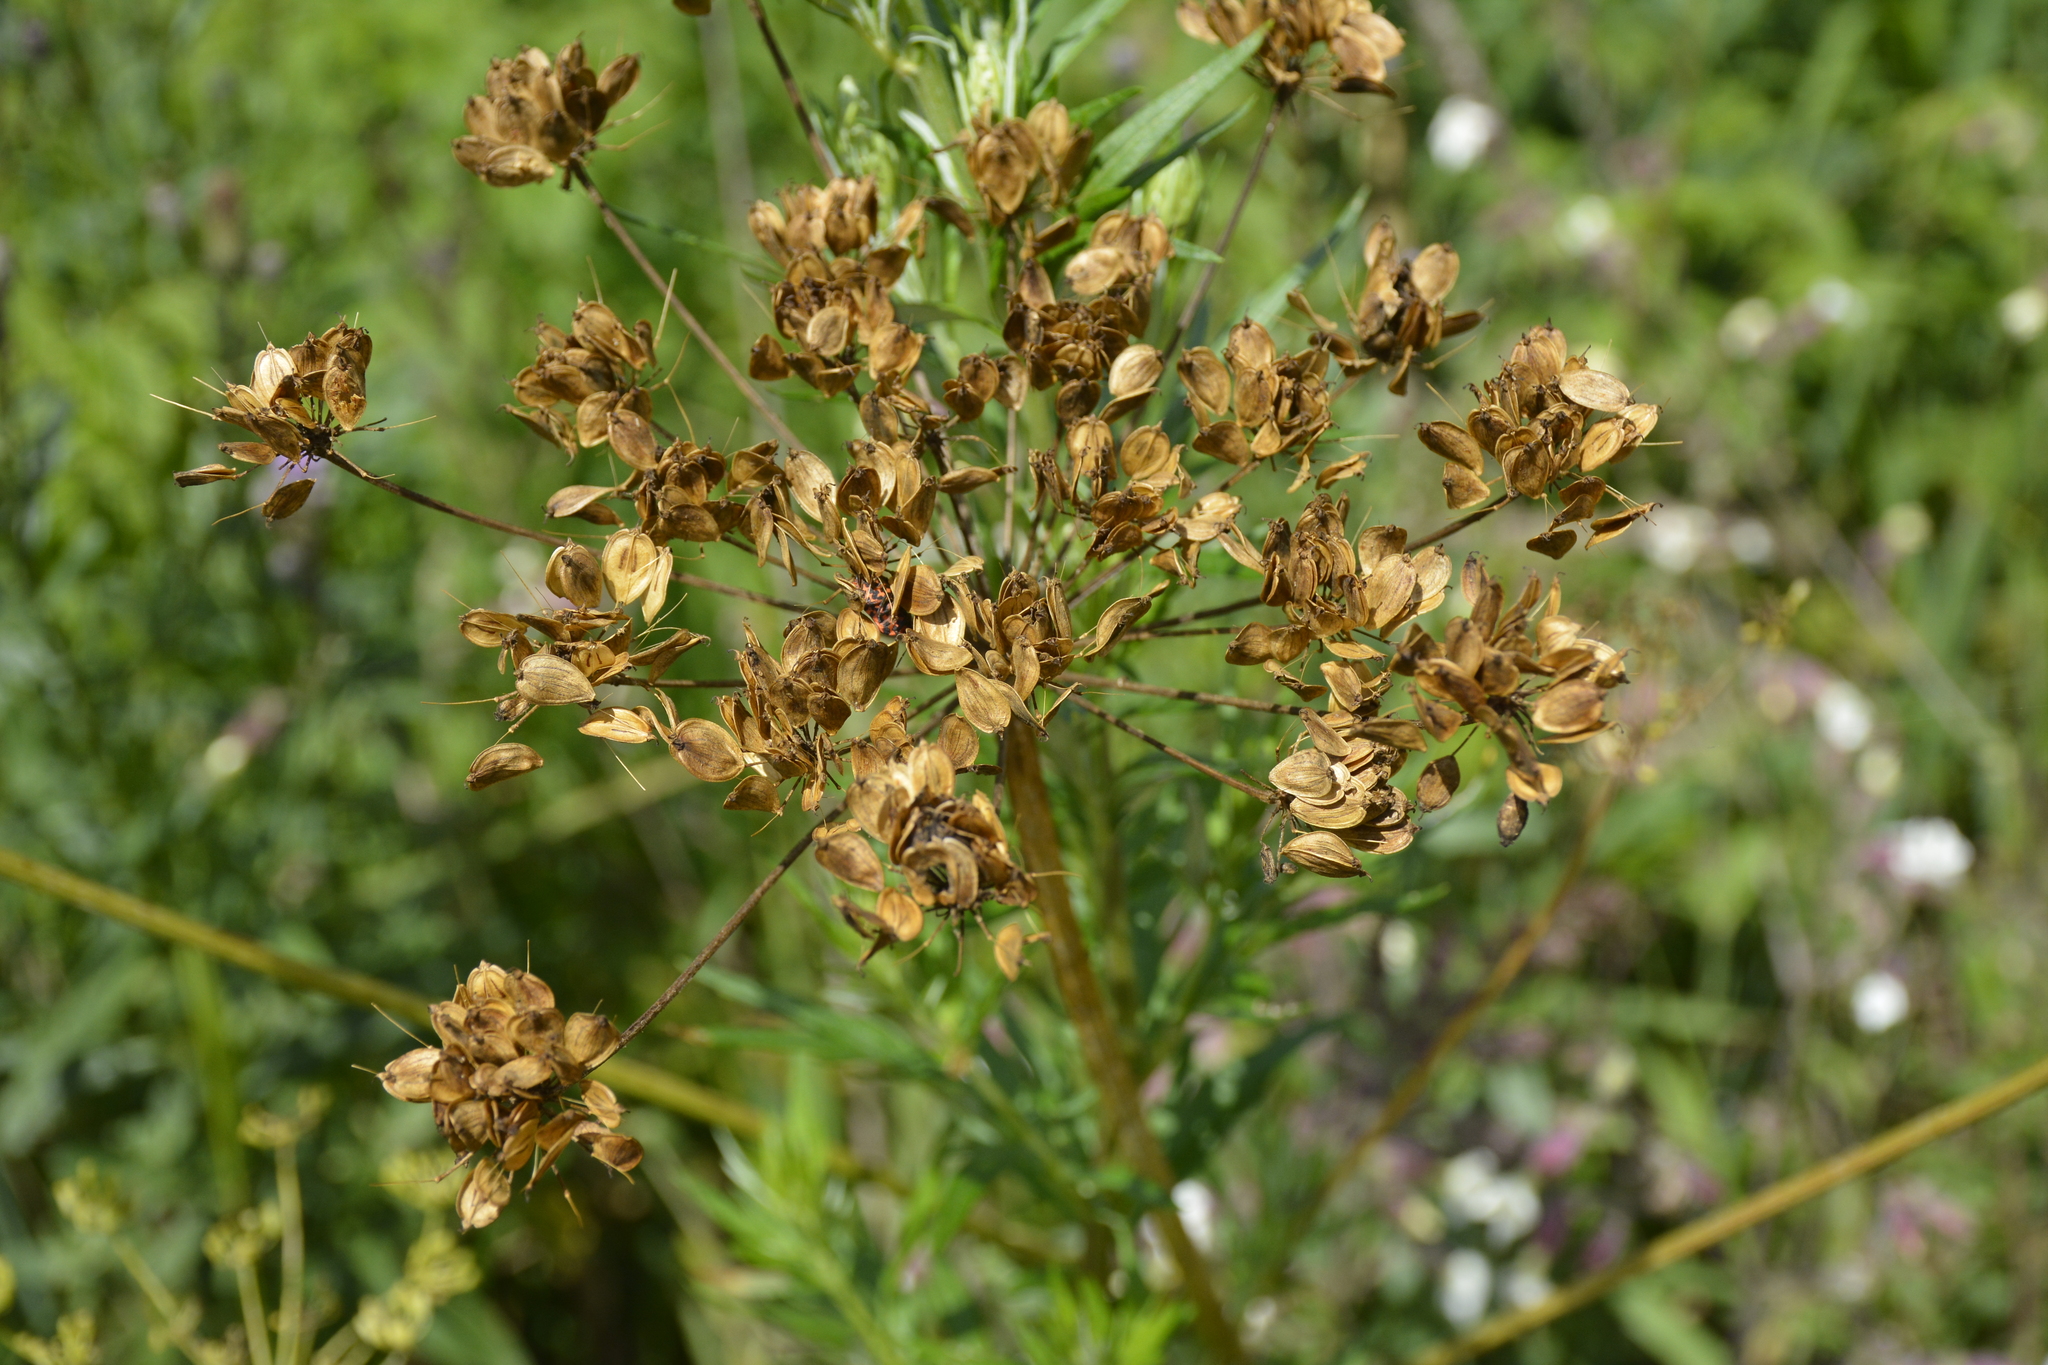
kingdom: Plantae
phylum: Tracheophyta
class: Magnoliopsida
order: Apiales
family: Apiaceae
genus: Pastinaca
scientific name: Pastinaca sativa
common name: Wild parsnip
